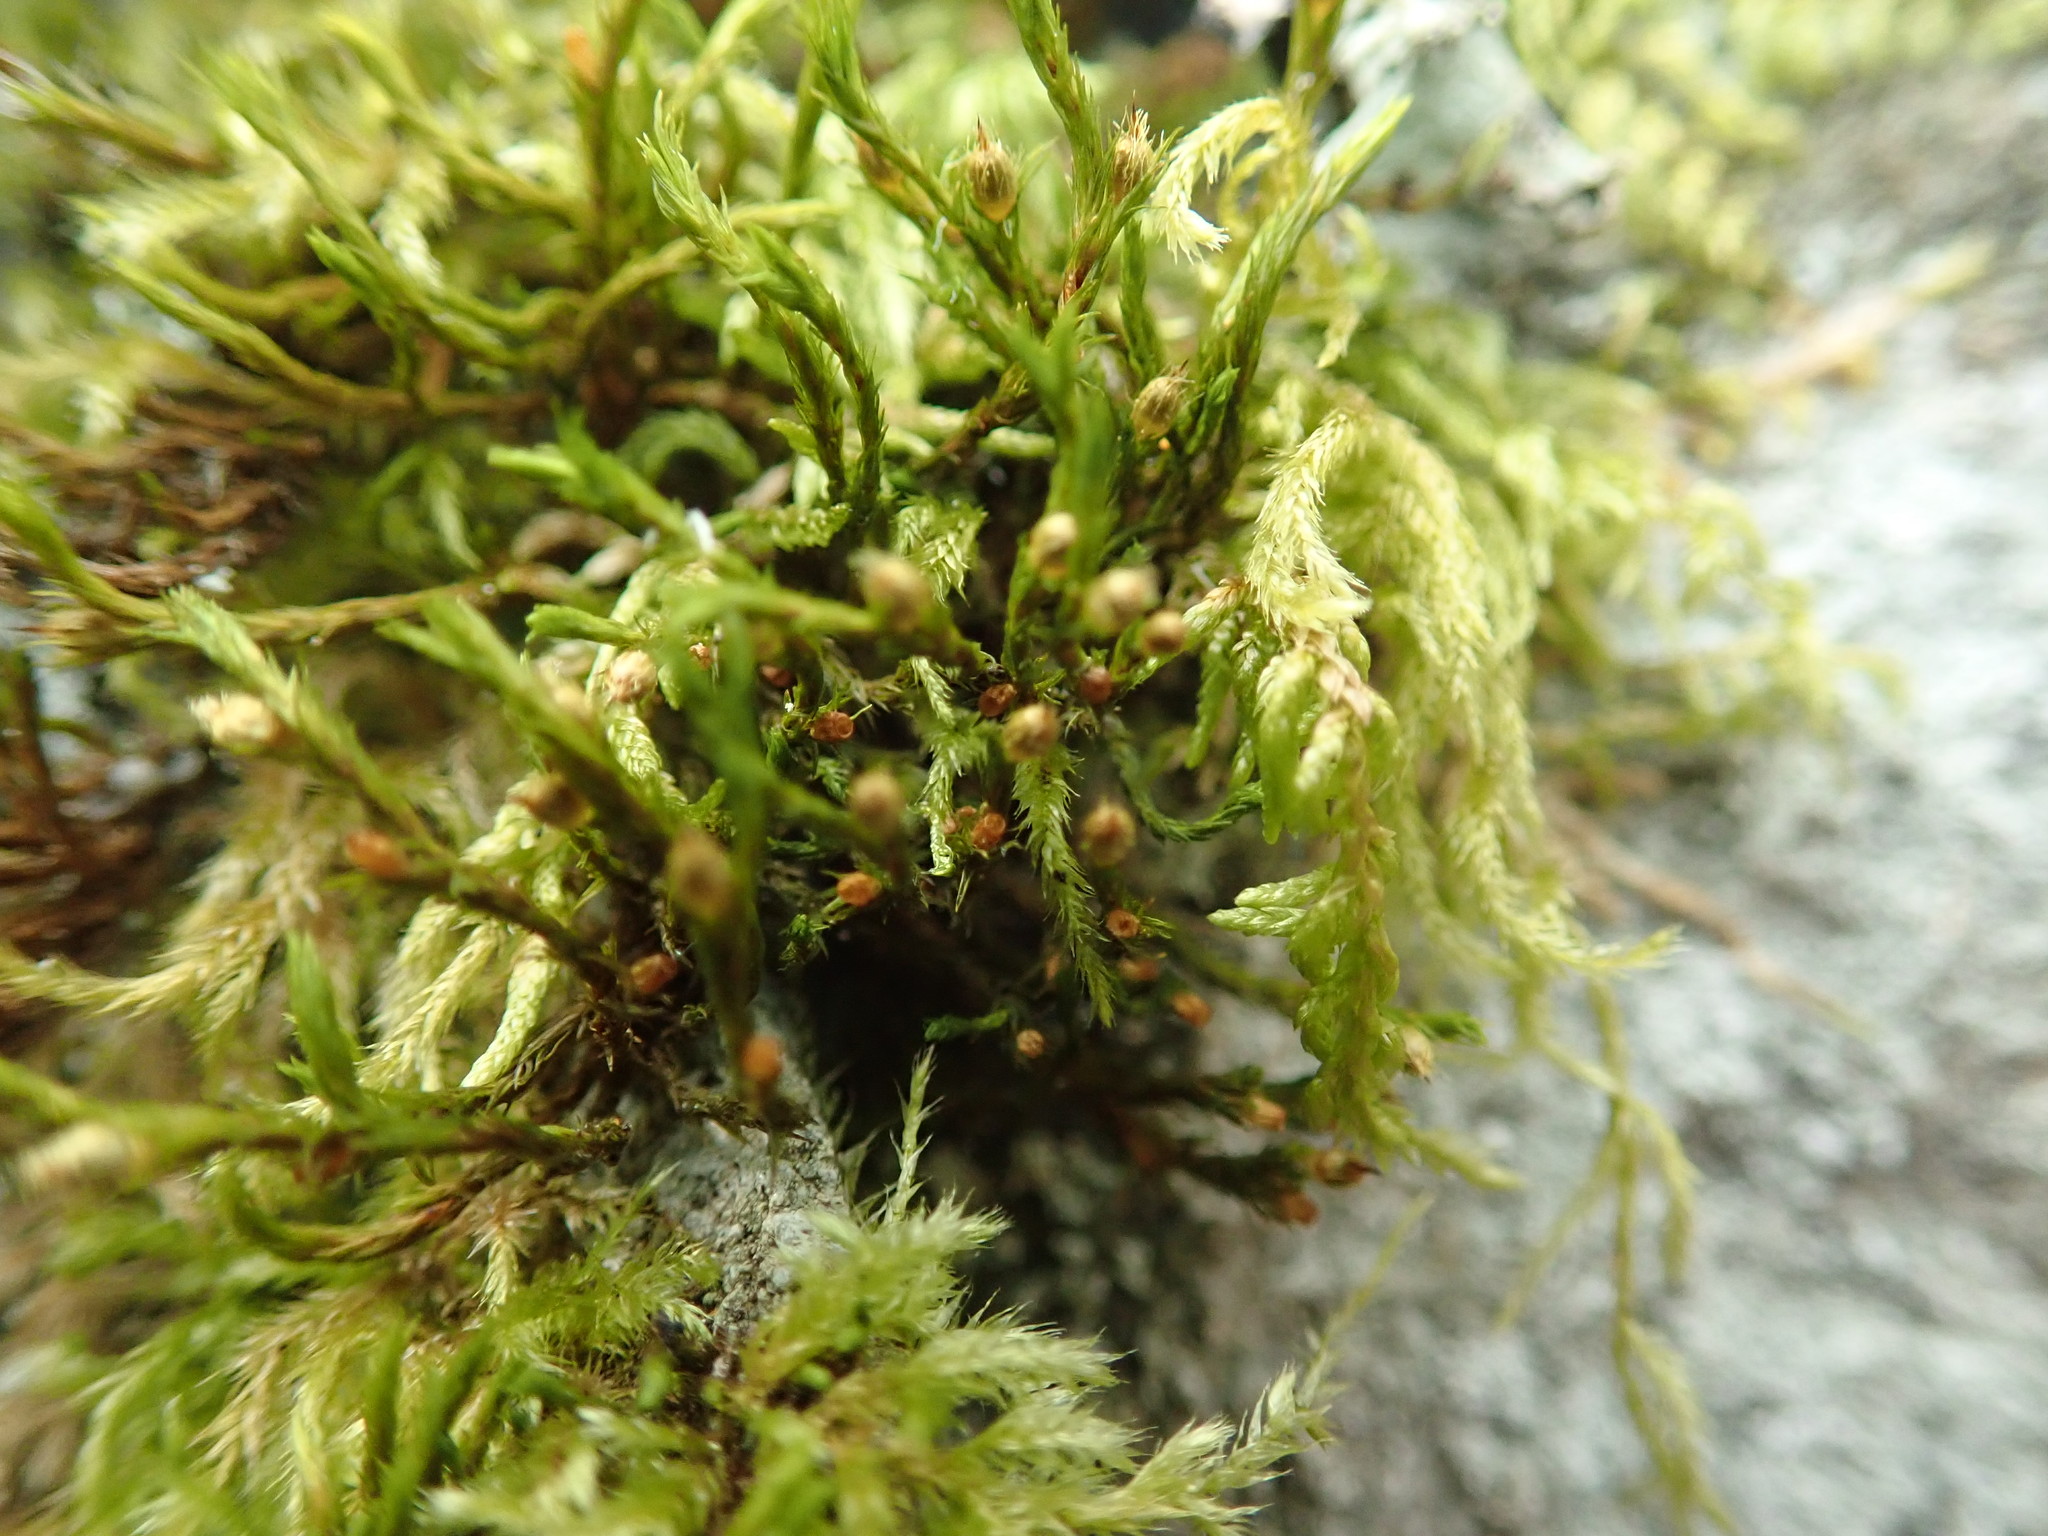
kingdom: Plantae
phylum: Bryophyta
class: Bryopsida
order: Orthotrichales
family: Orthotrichaceae
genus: Lewinskya
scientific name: Lewinskya rupestris
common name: Rock bristle-moss
